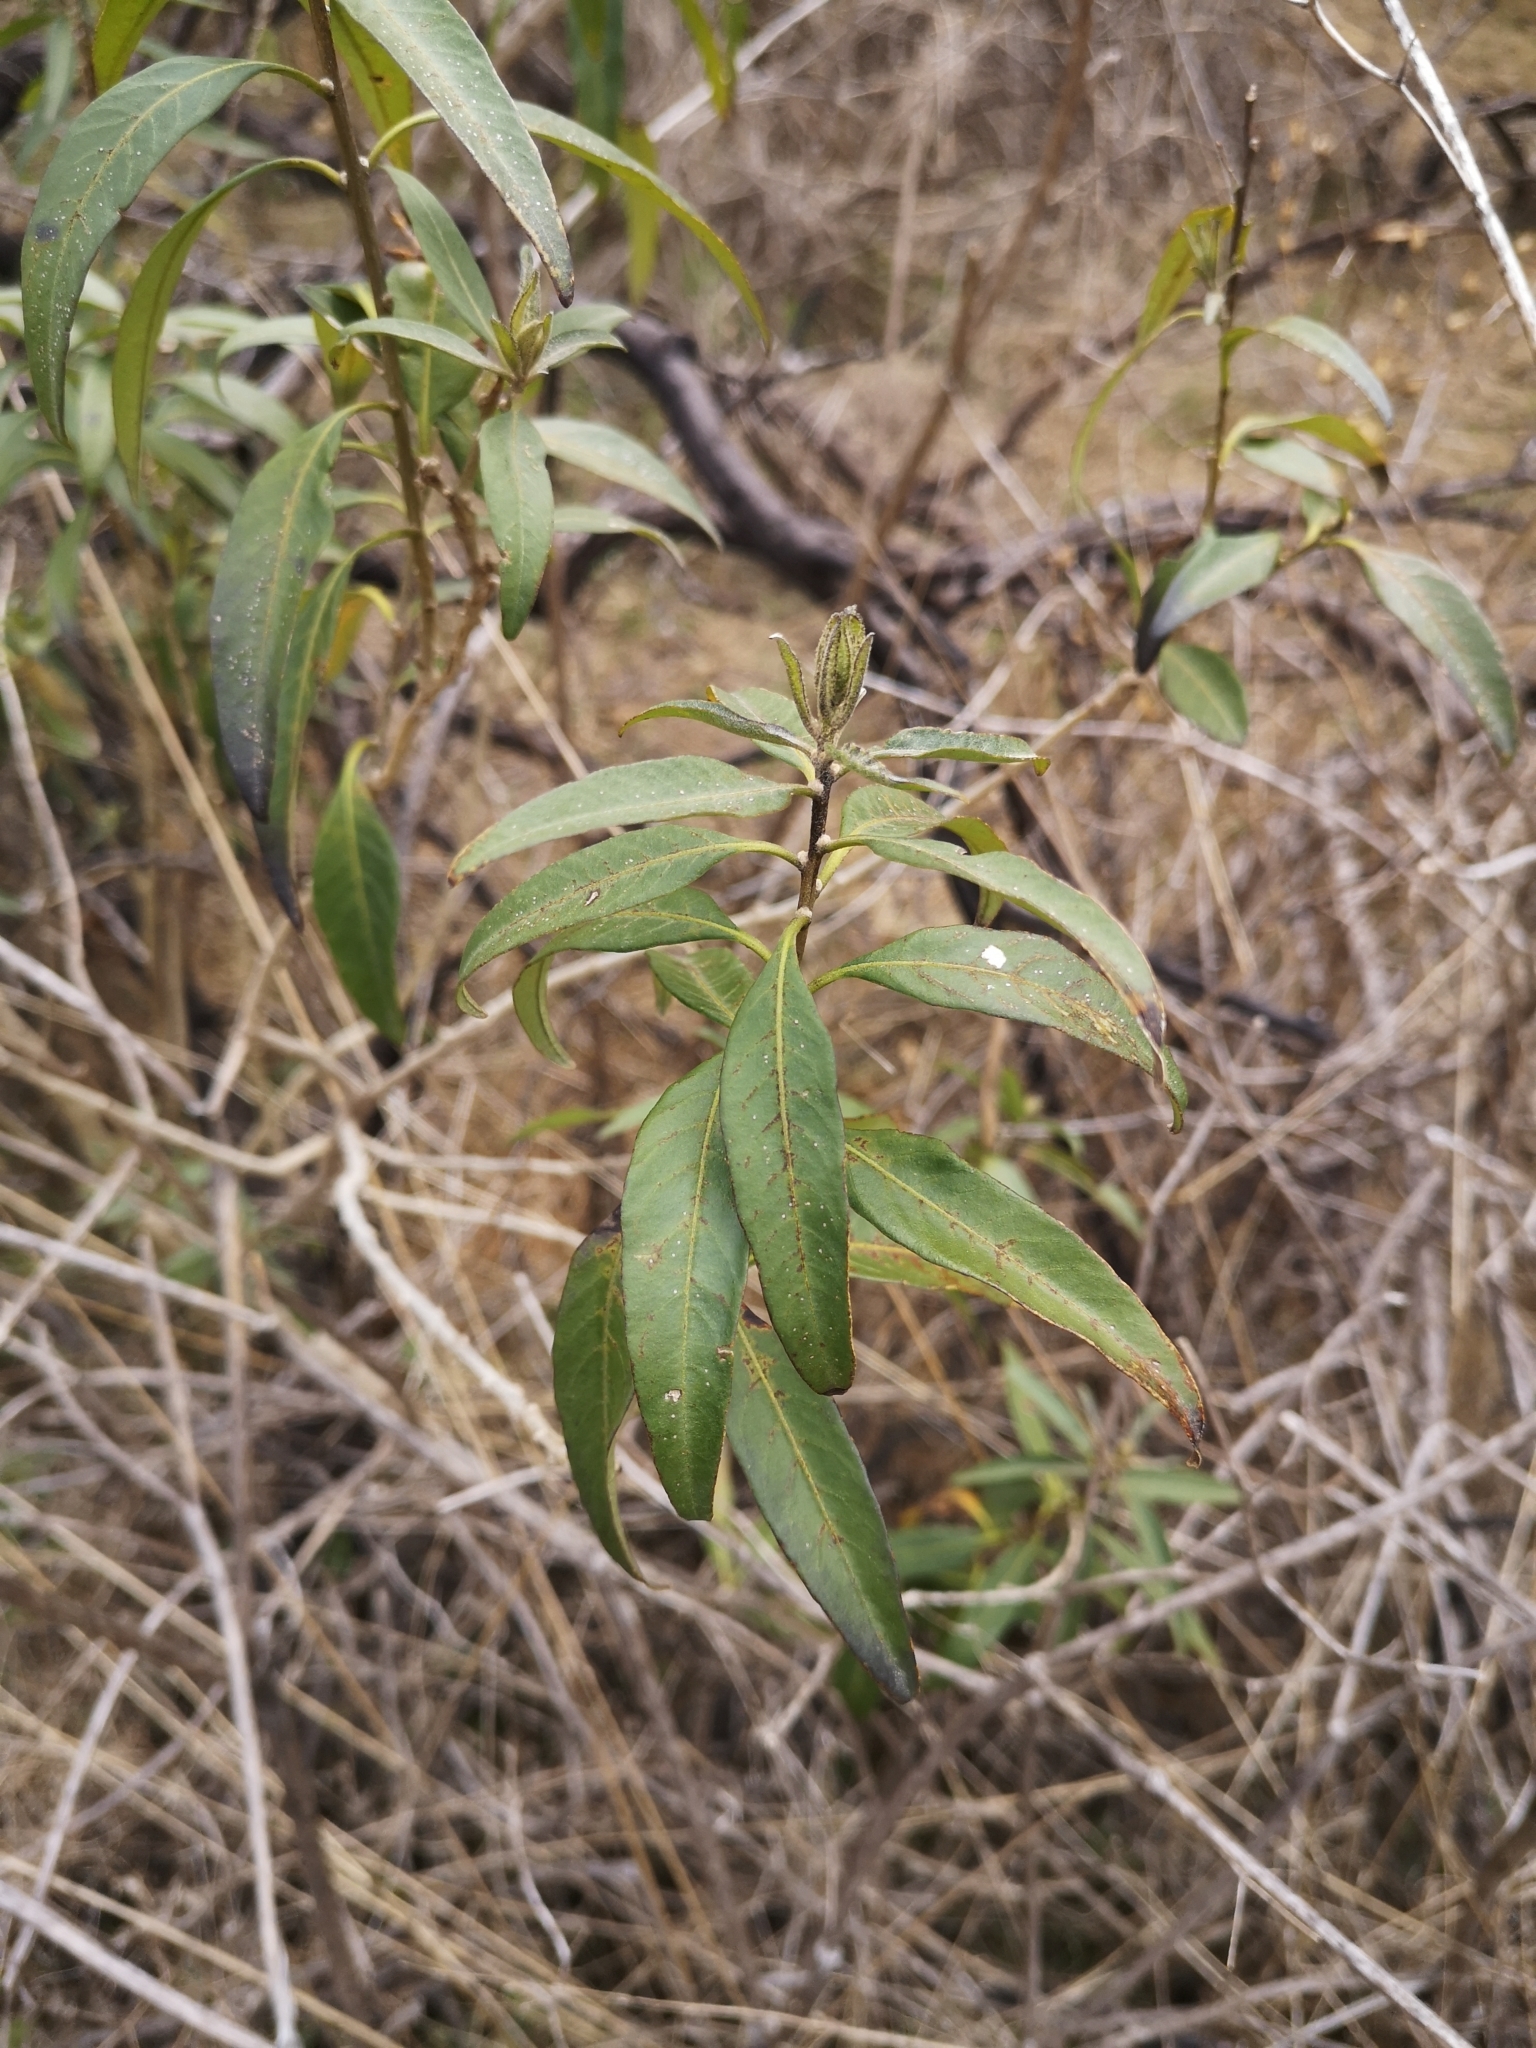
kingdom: Plantae
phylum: Tracheophyta
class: Magnoliopsida
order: Solanales
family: Solanaceae
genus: Cestrum
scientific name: Cestrum parqui
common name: Chilean cestrum
